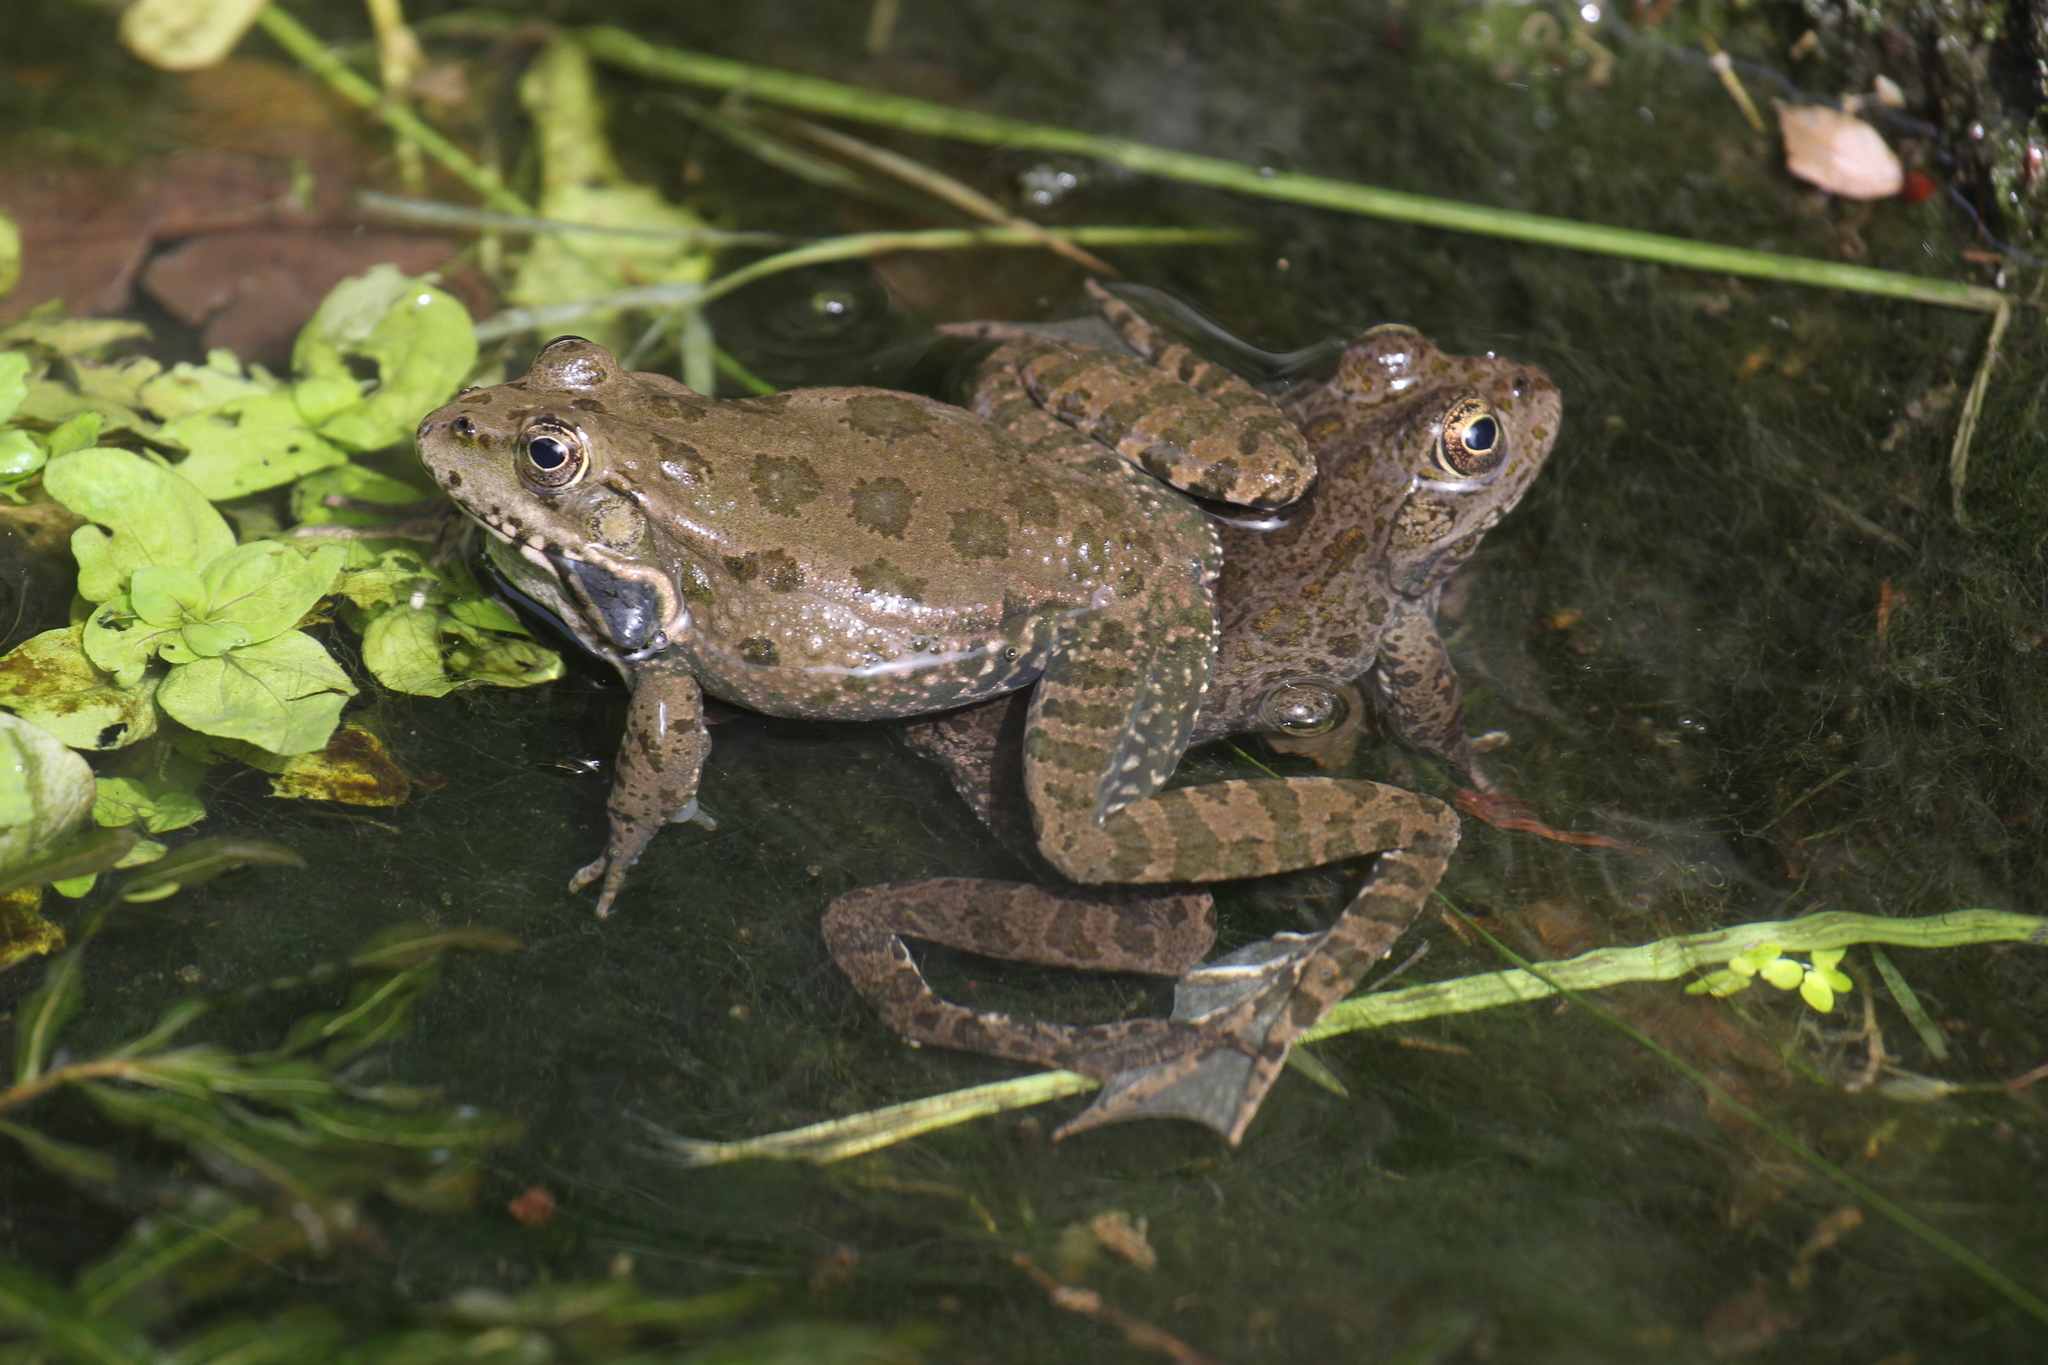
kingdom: Animalia
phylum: Chordata
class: Amphibia
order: Anura
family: Ranidae
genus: Pelophylax
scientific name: Pelophylax ridibundus
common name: Marsh frog
